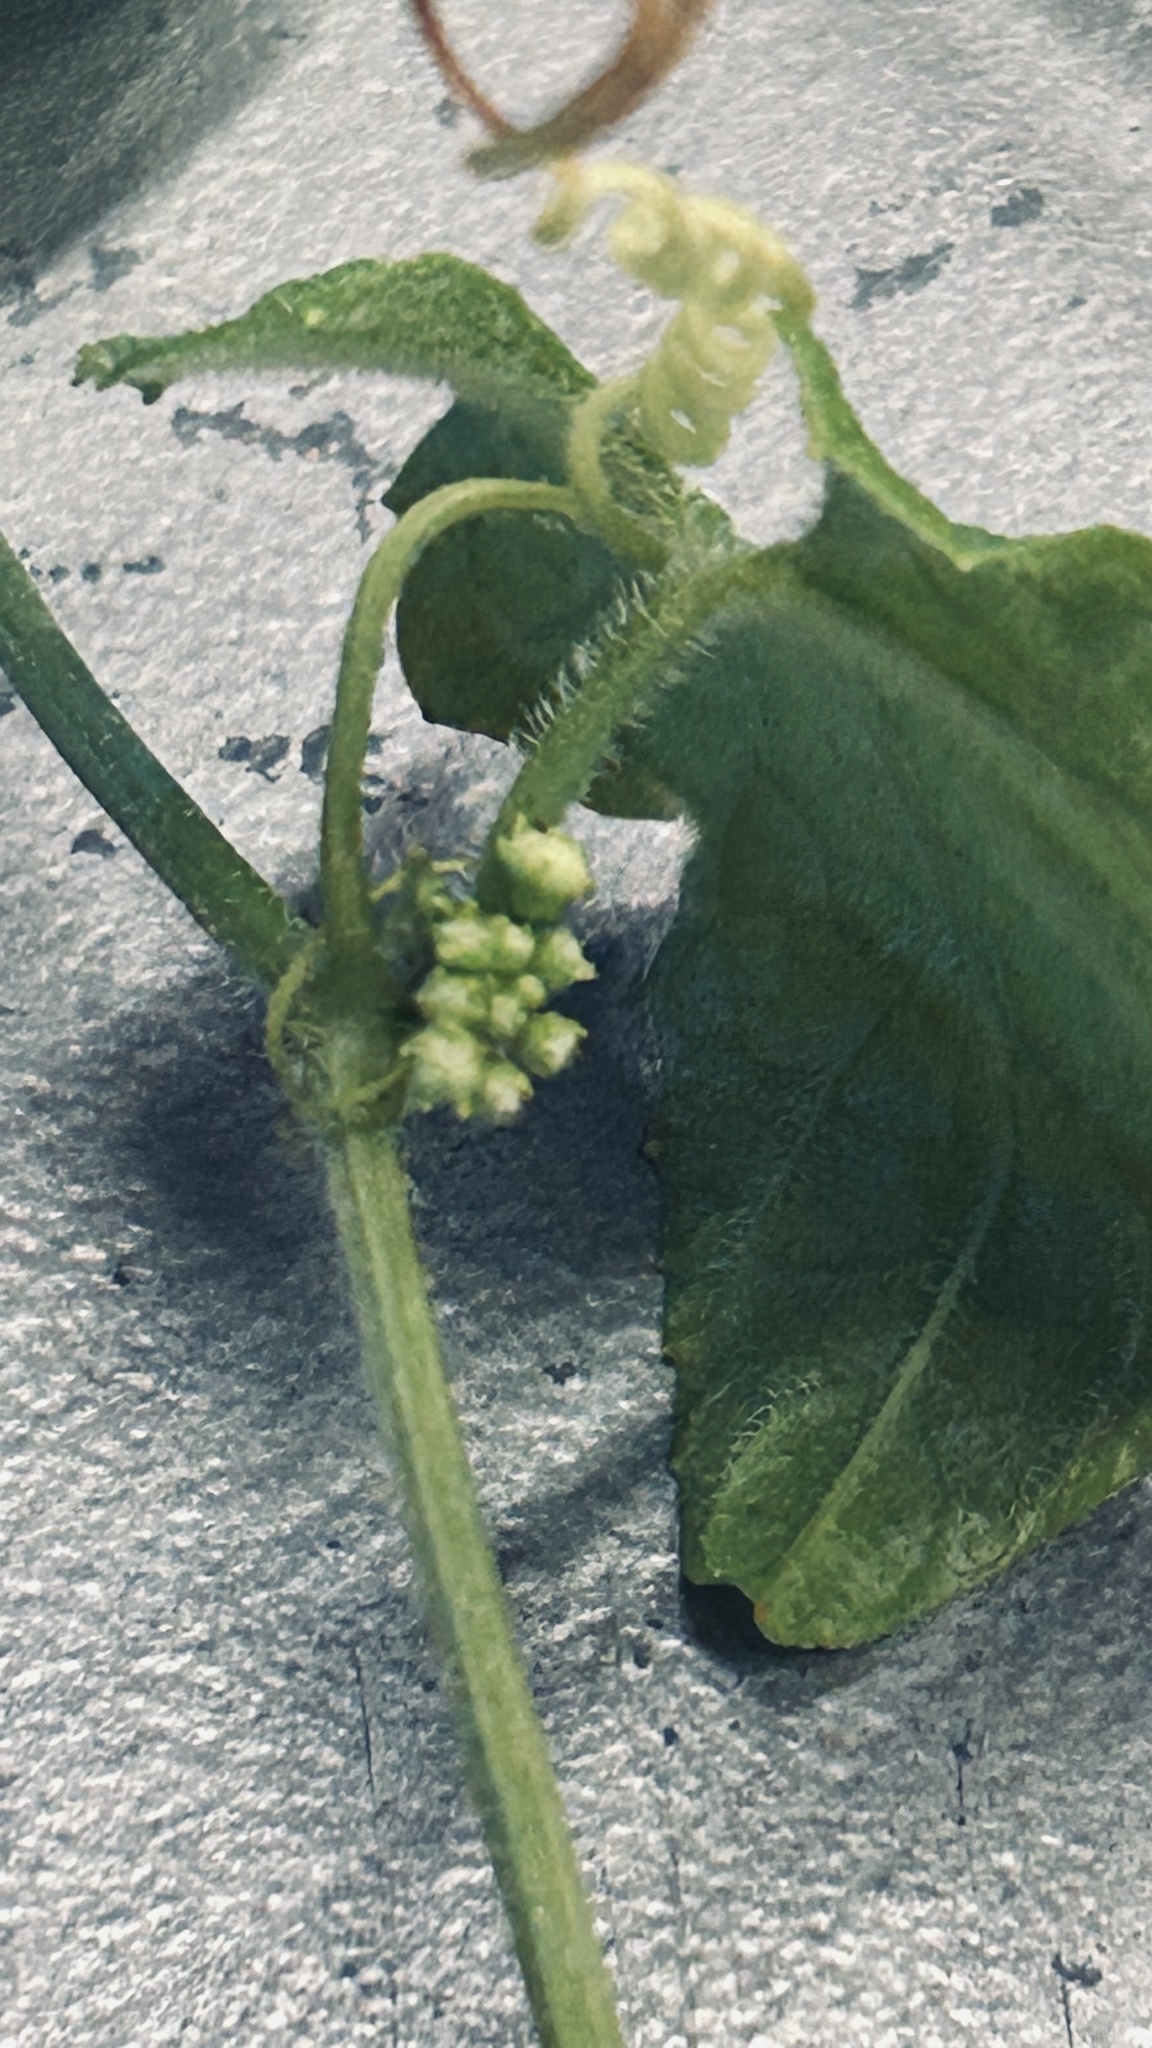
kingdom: Plantae
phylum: Tracheophyta
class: Magnoliopsida
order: Cucurbitales
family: Cucurbitaceae
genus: Zehneria
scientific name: Zehneria scabra
